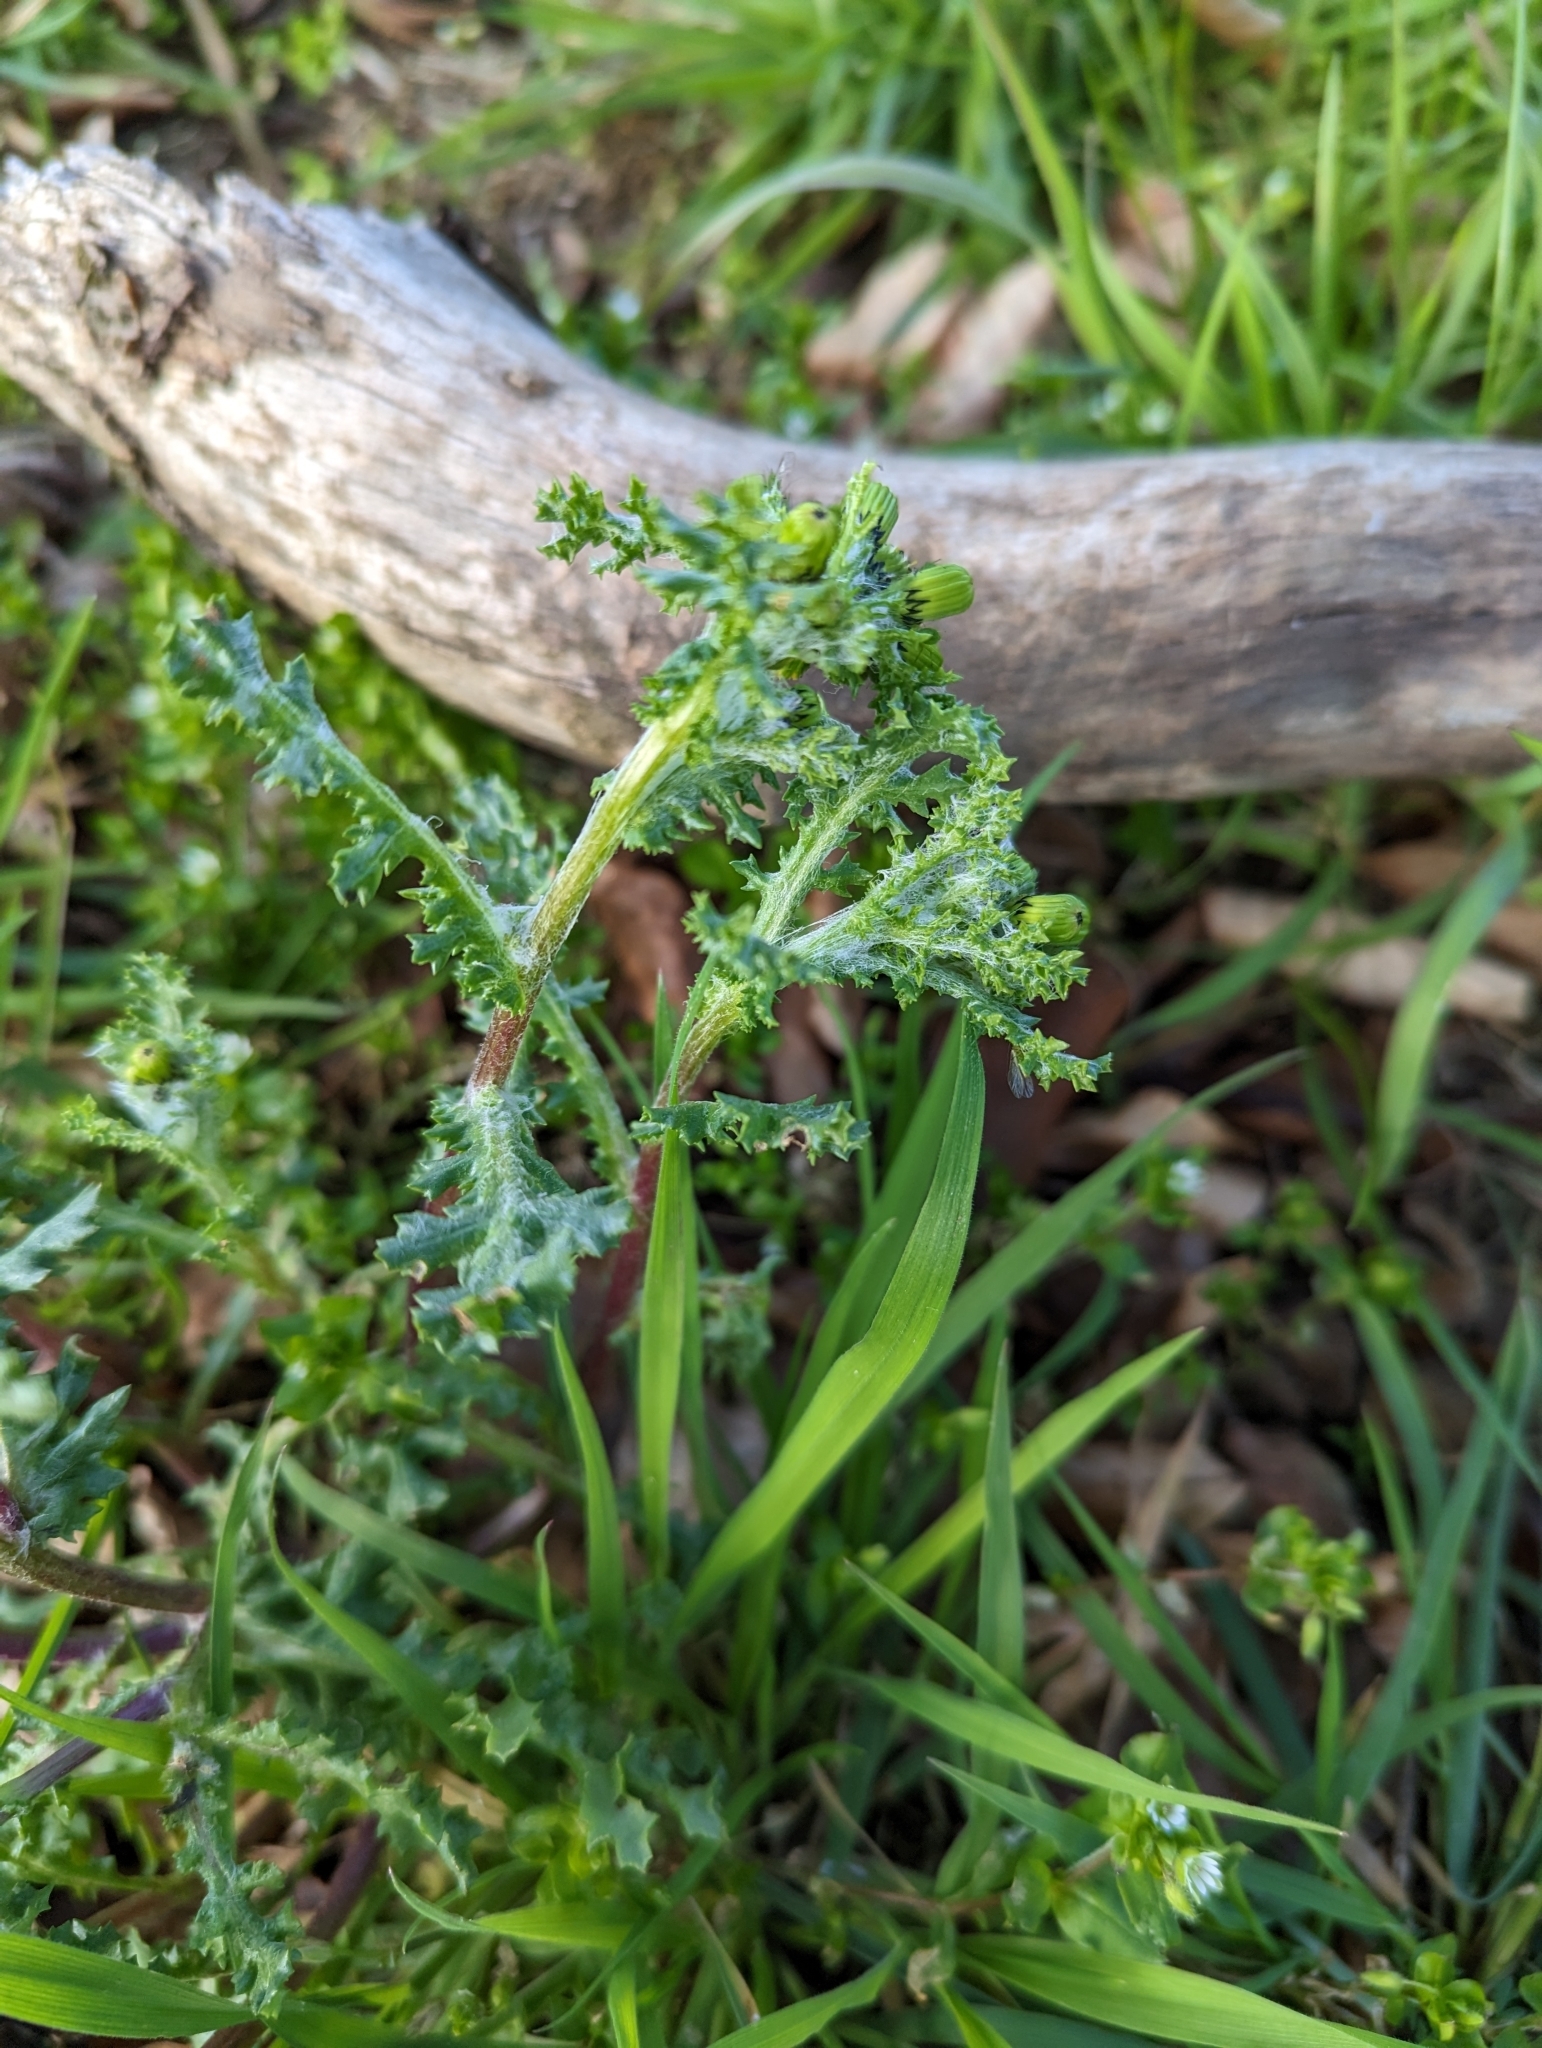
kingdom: Plantae
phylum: Tracheophyta
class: Magnoliopsida
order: Asterales
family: Asteraceae
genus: Senecio
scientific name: Senecio vulgaris
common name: Old-man-in-the-spring
